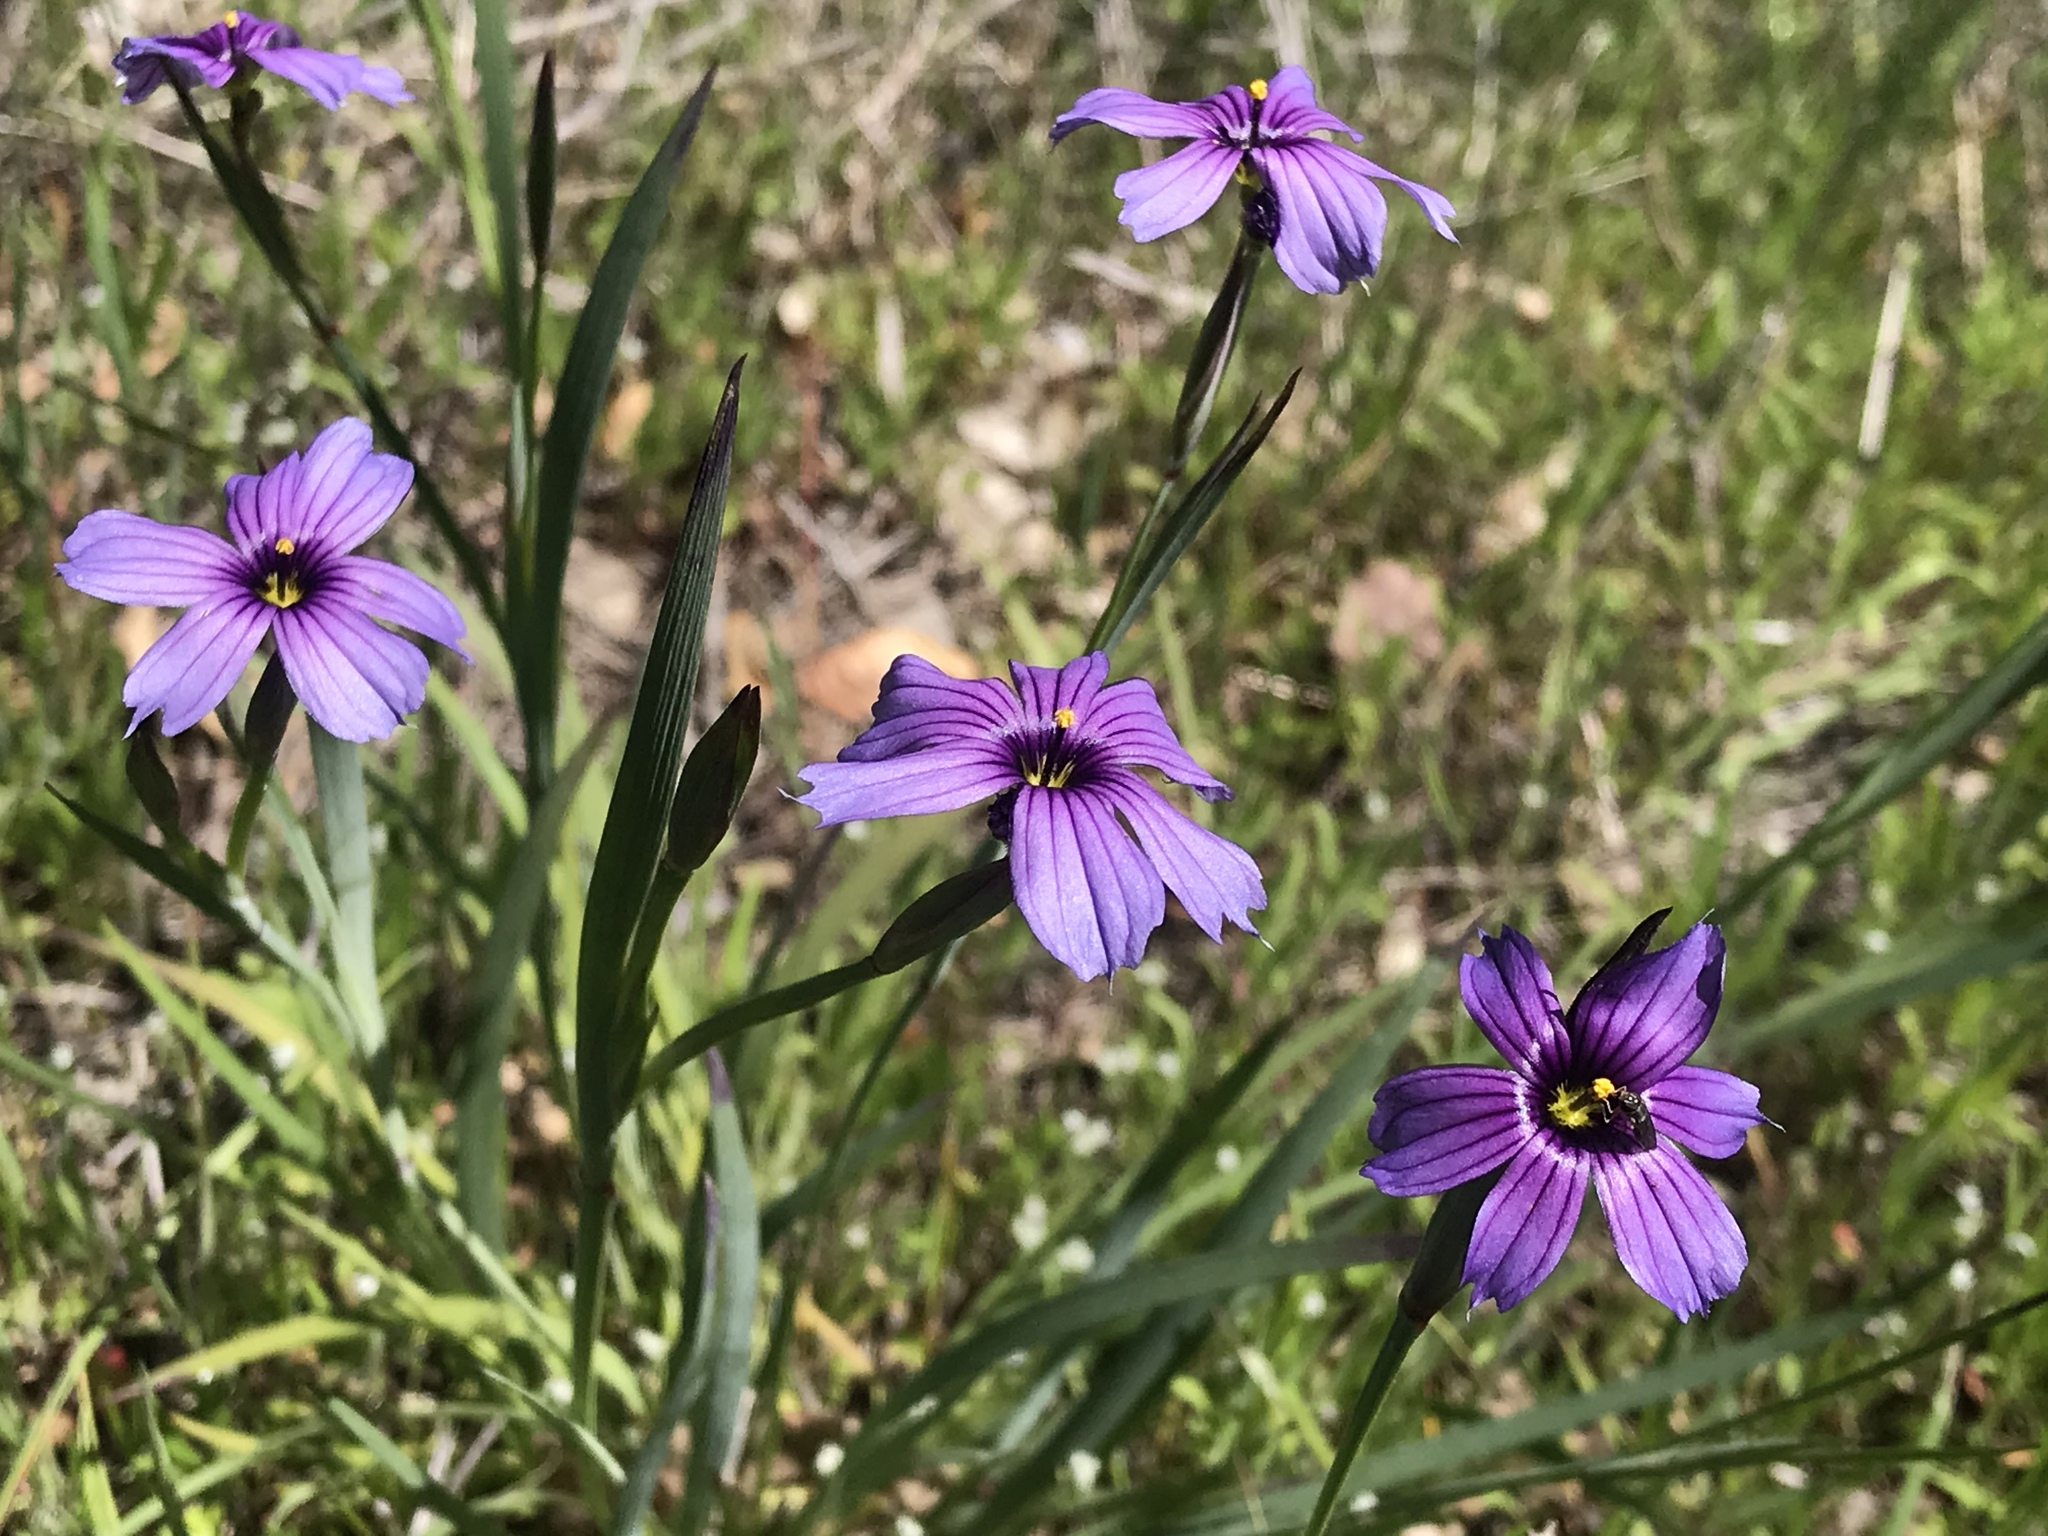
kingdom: Plantae
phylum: Tracheophyta
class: Liliopsida
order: Asparagales
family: Iridaceae
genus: Sisyrinchium
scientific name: Sisyrinchium bellum
